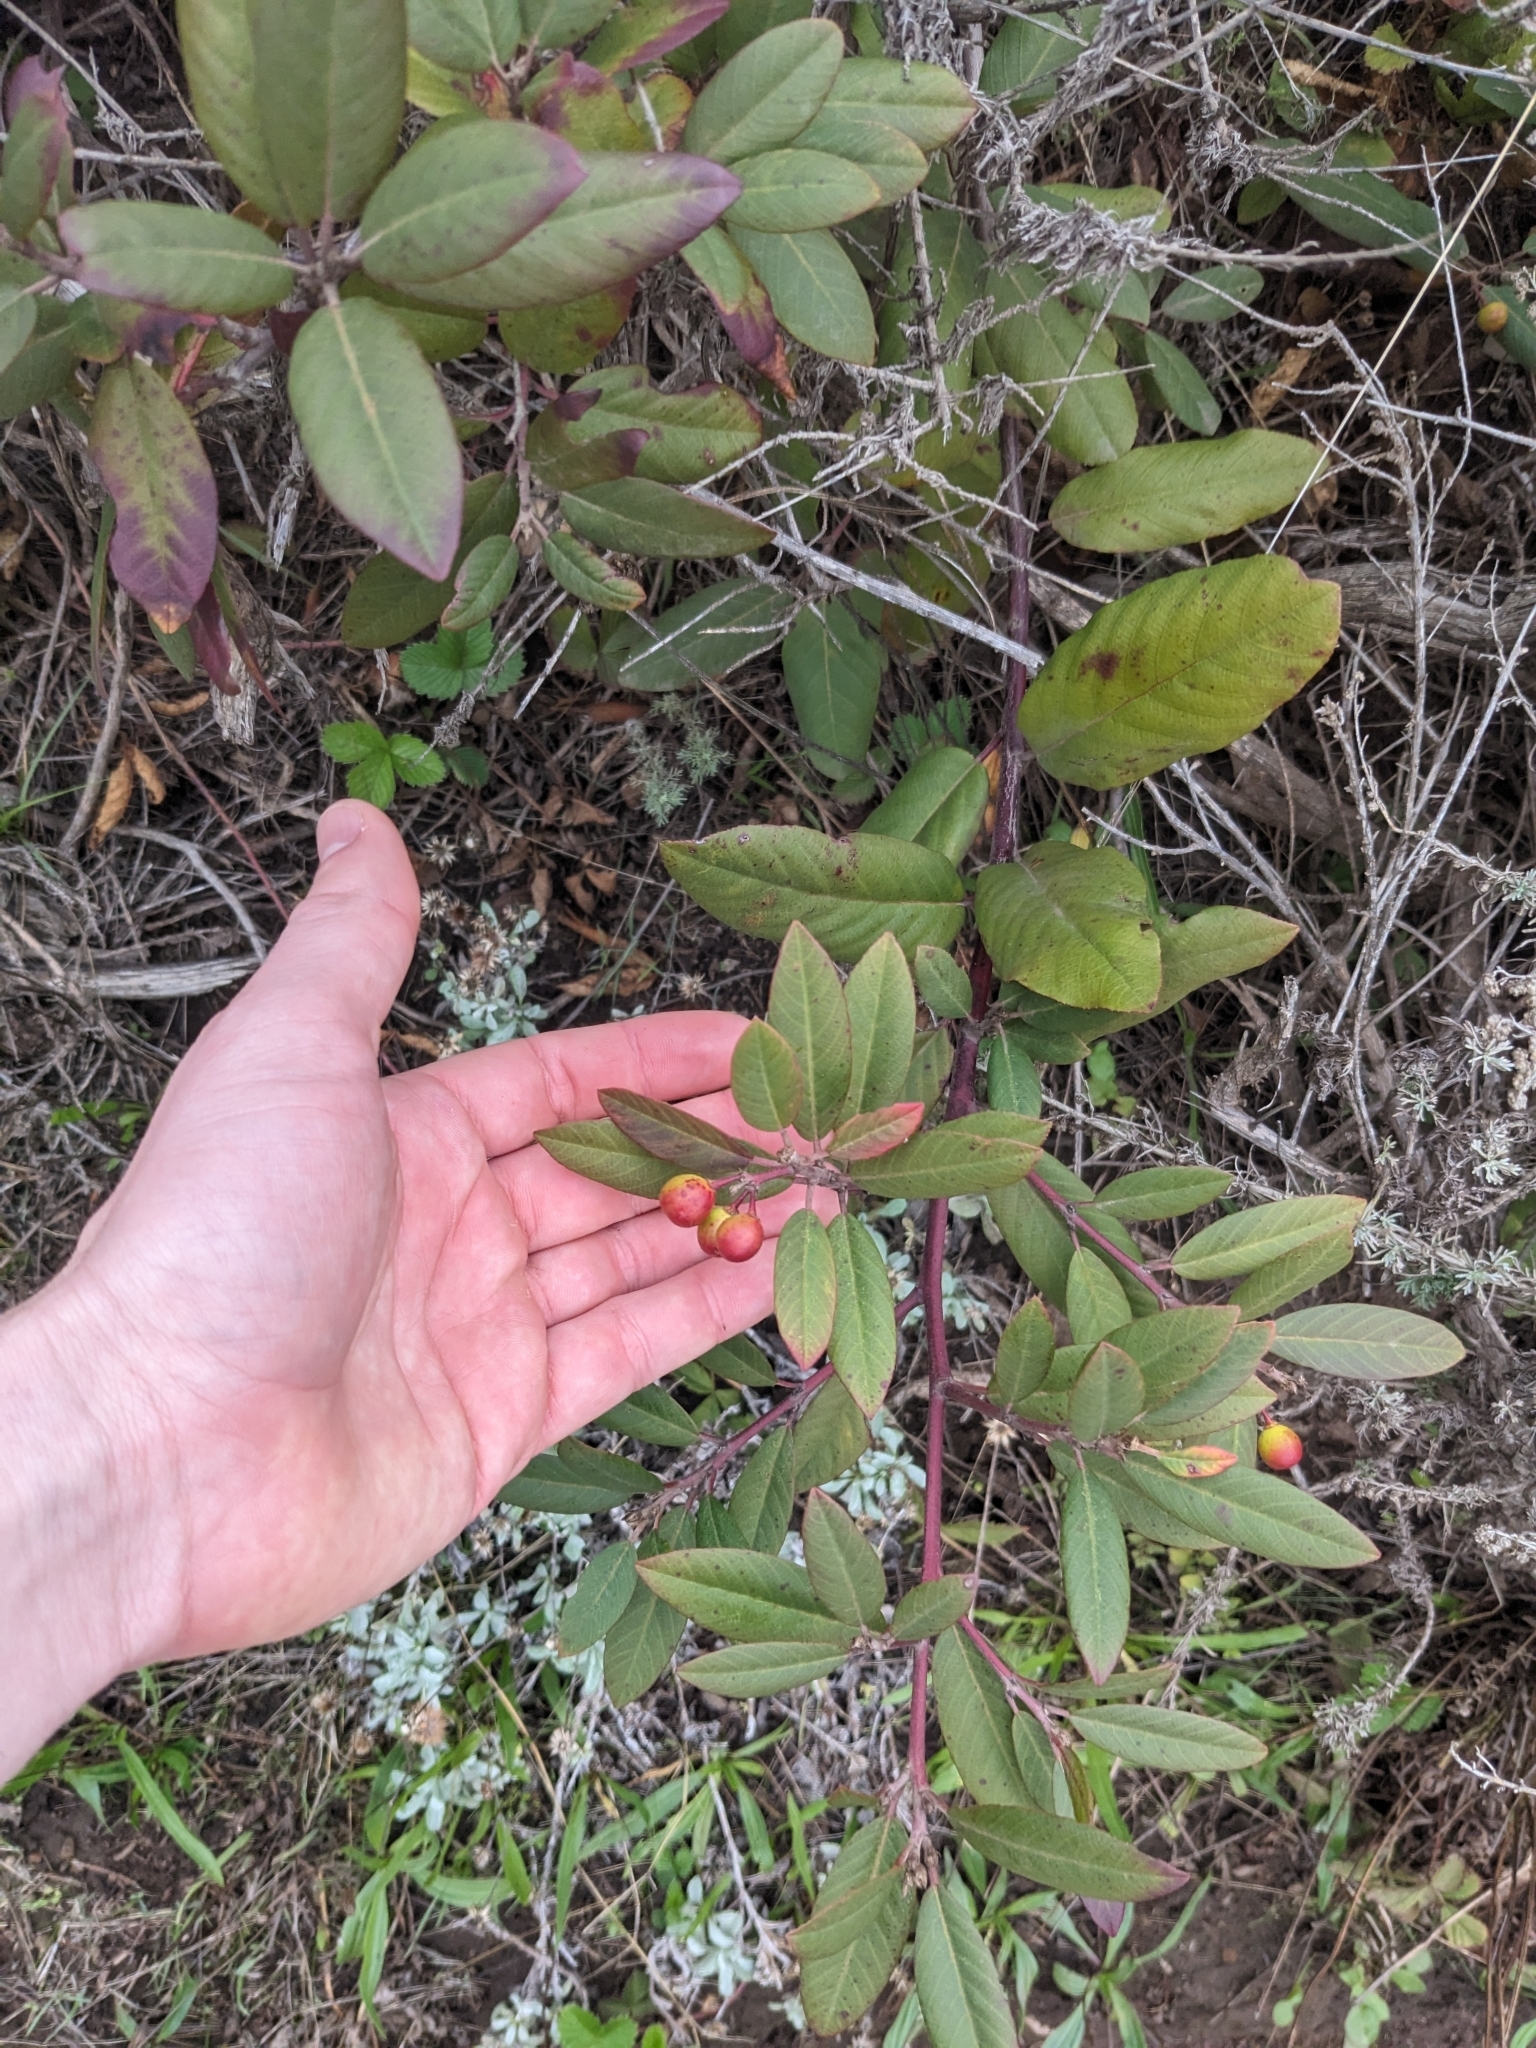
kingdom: Plantae
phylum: Tracheophyta
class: Magnoliopsida
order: Rosales
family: Rhamnaceae
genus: Frangula
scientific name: Frangula californica
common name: California buckthorn
